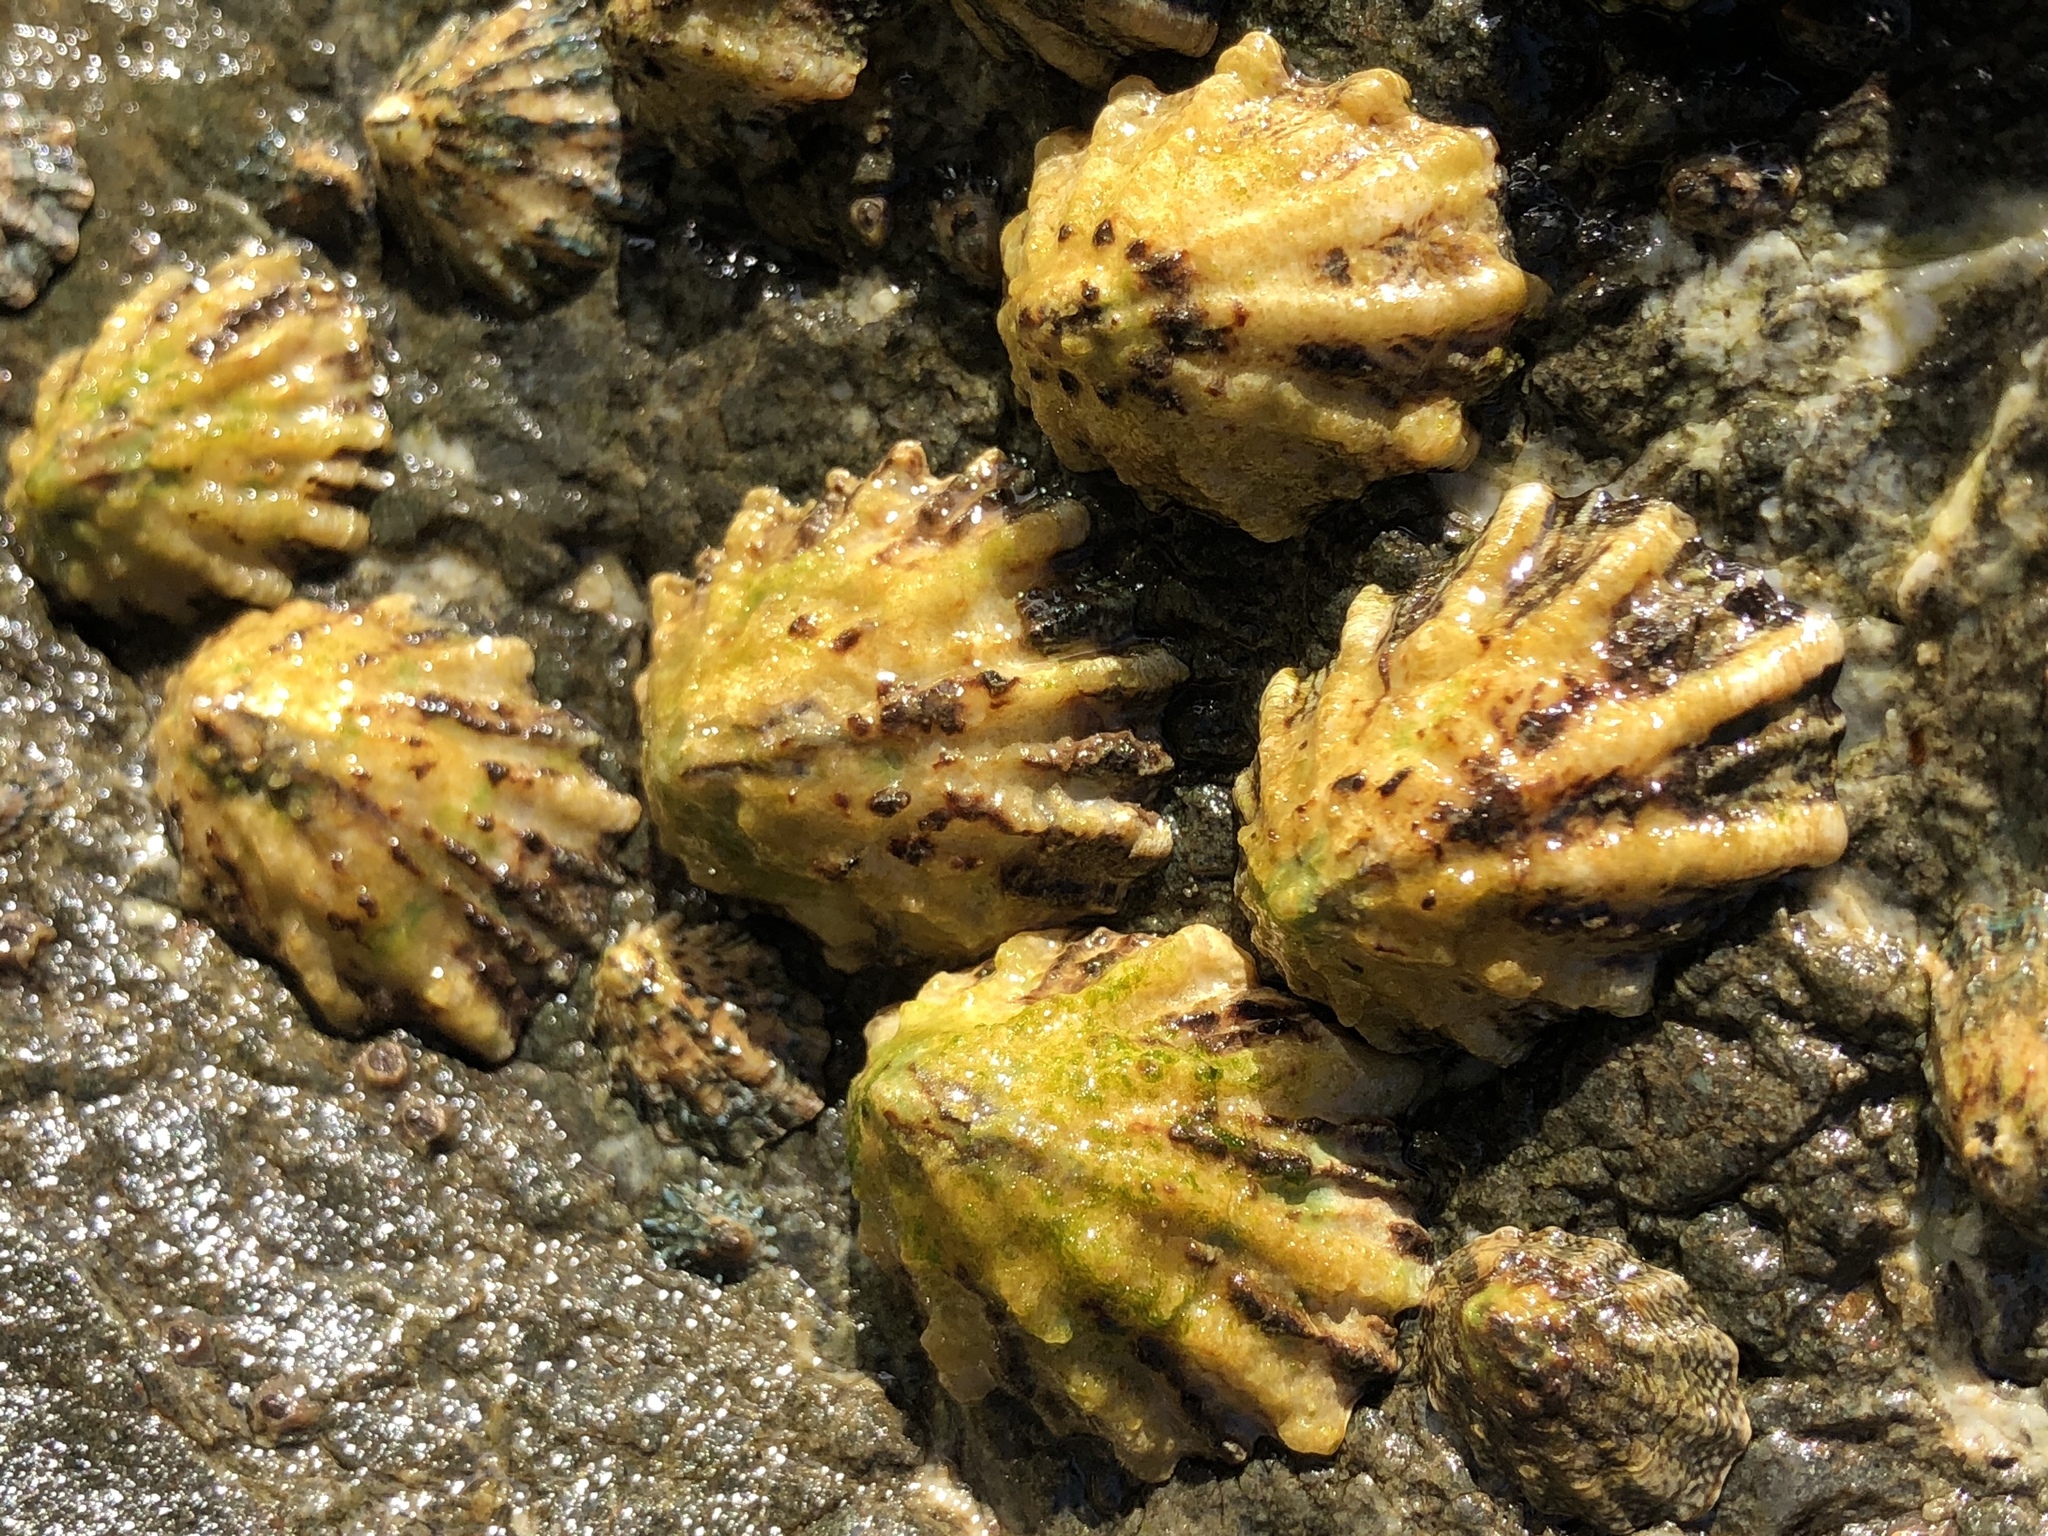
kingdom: Animalia
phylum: Mollusca
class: Gastropoda
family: Lottiidae
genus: Lottia
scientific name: Lottia scabra
